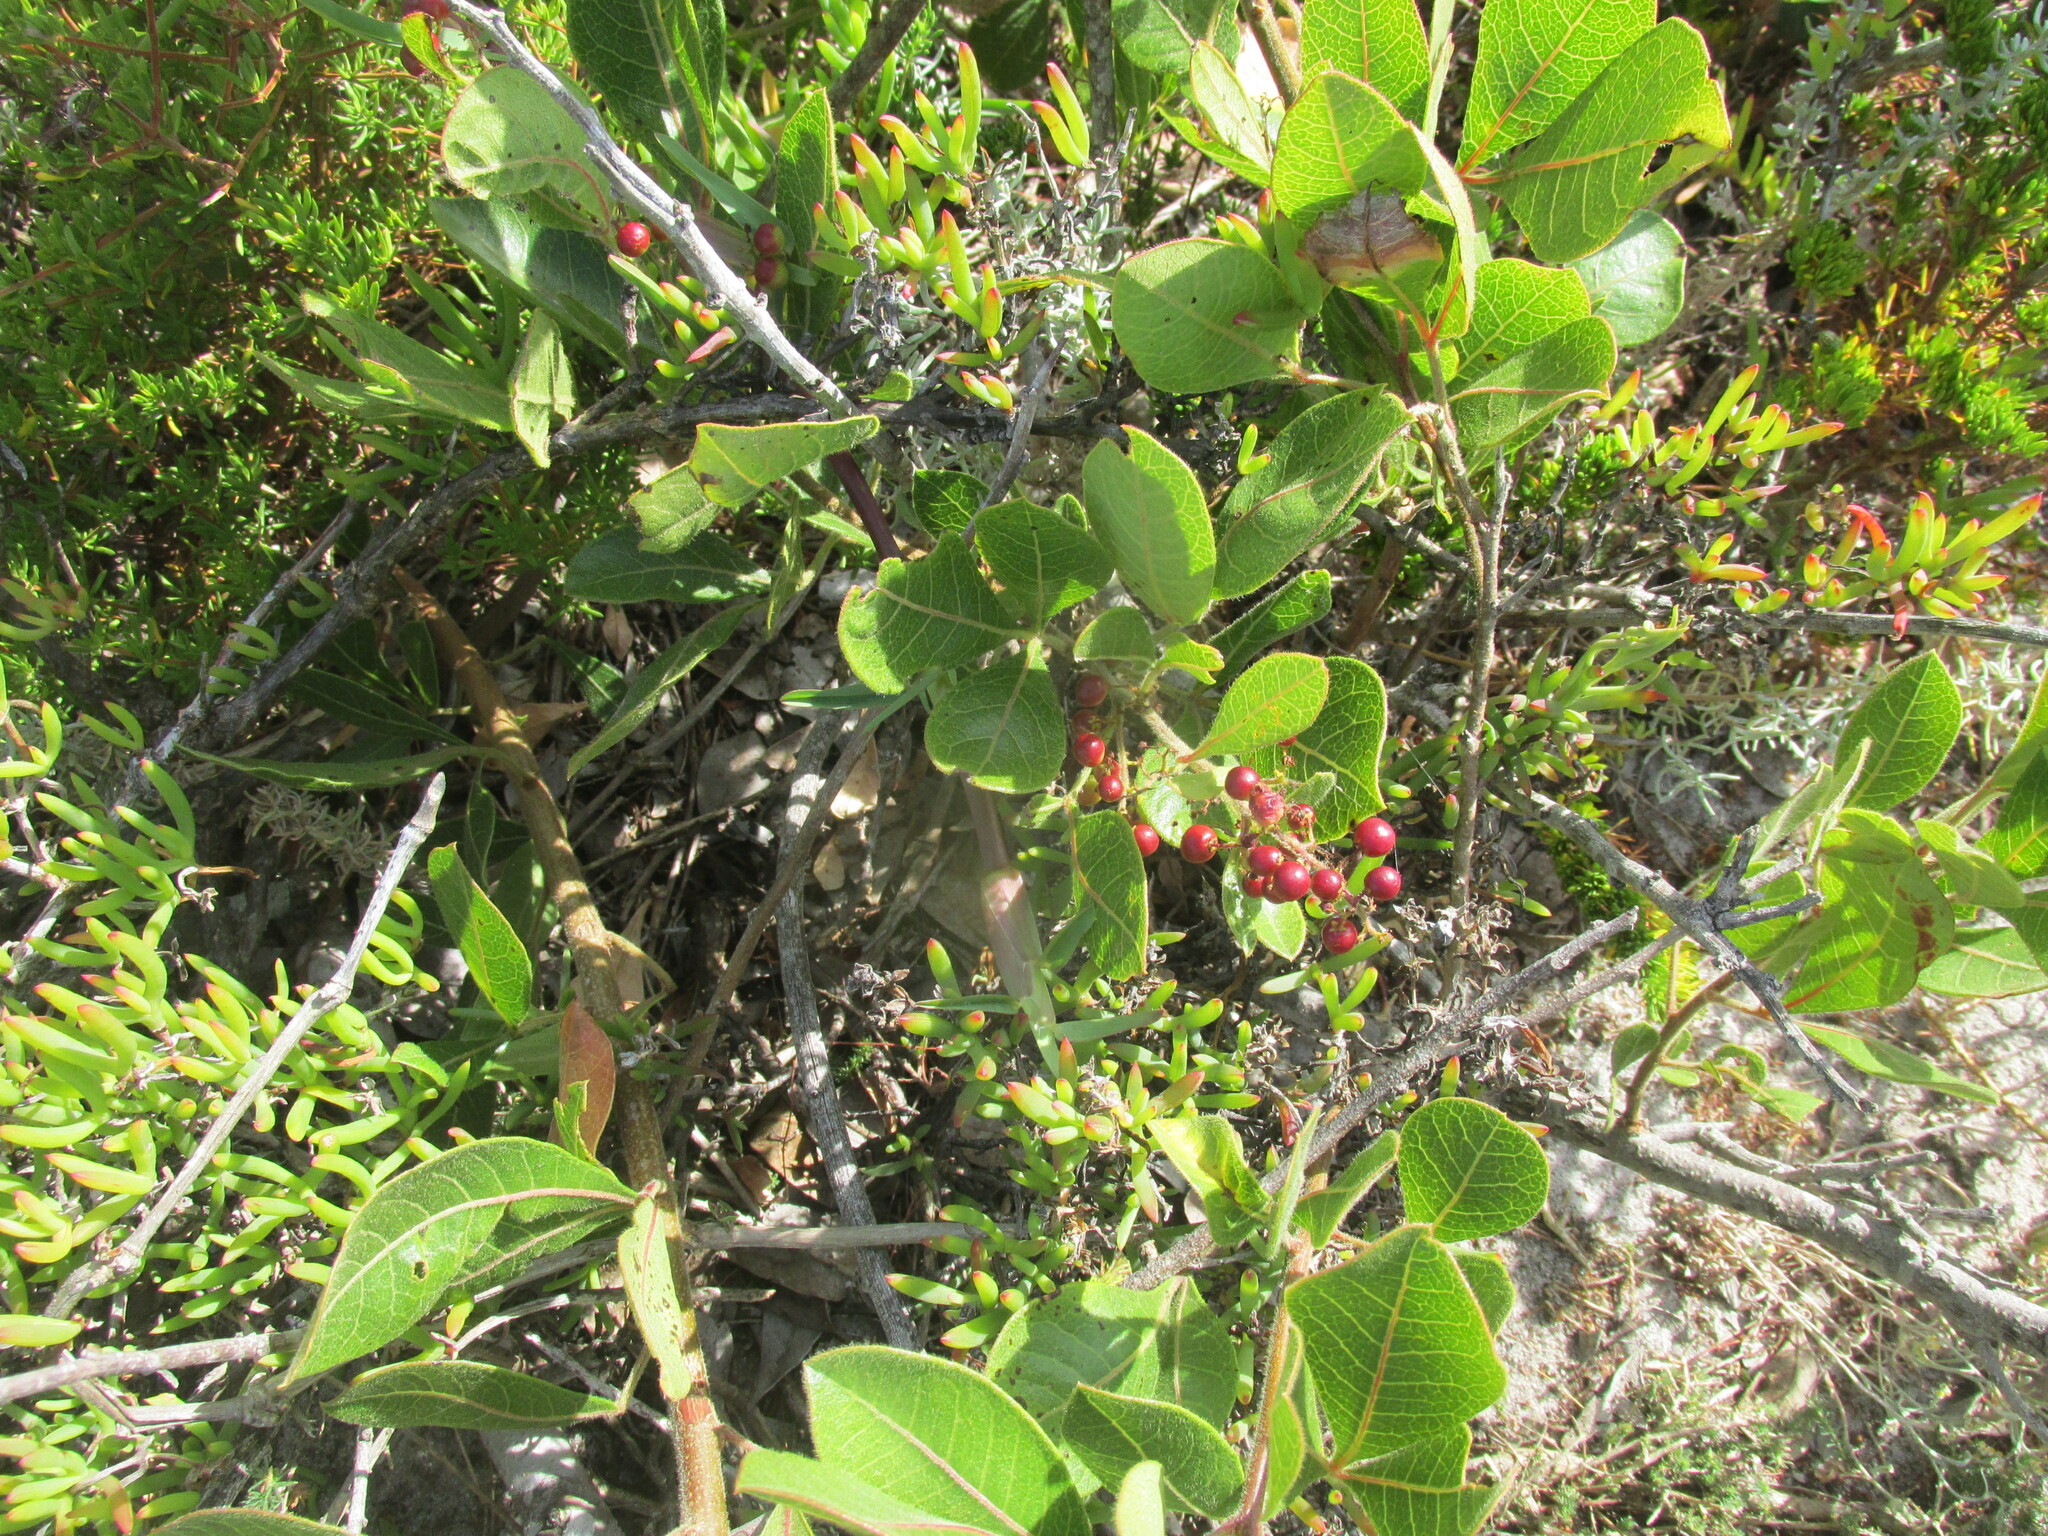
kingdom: Plantae
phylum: Tracheophyta
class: Magnoliopsida
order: Sapindales
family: Anacardiaceae
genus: Searsia
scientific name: Searsia laevigata
